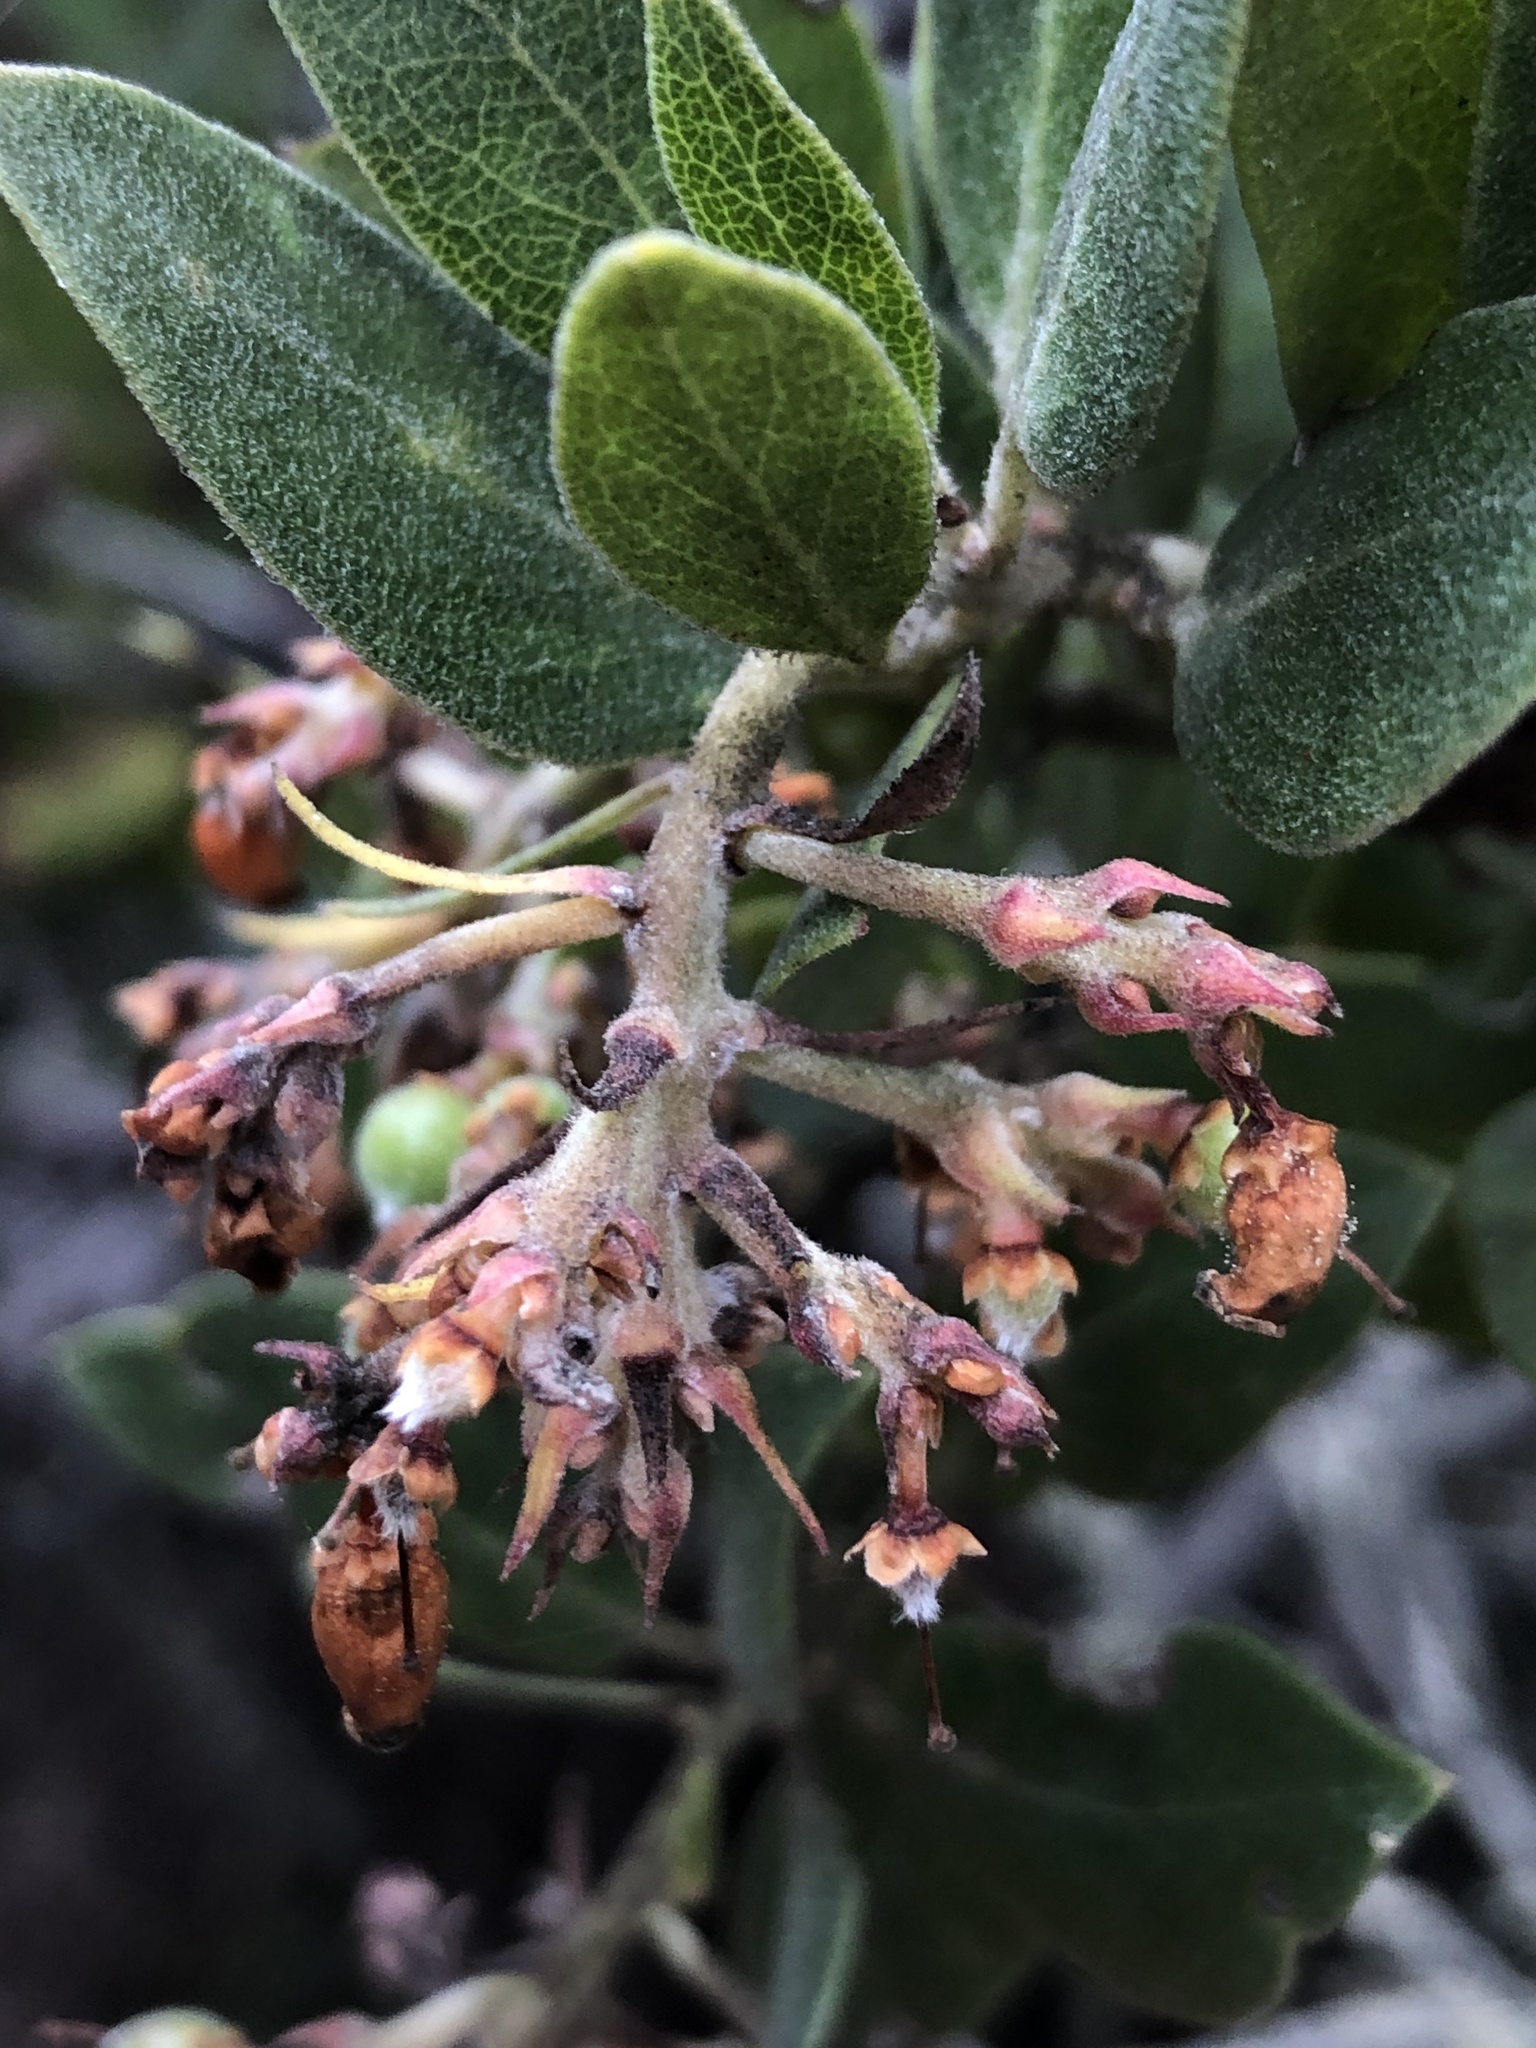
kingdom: Plantae
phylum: Tracheophyta
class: Magnoliopsida
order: Ericales
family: Ericaceae
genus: Arctostaphylos
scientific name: Arctostaphylos crustacea
